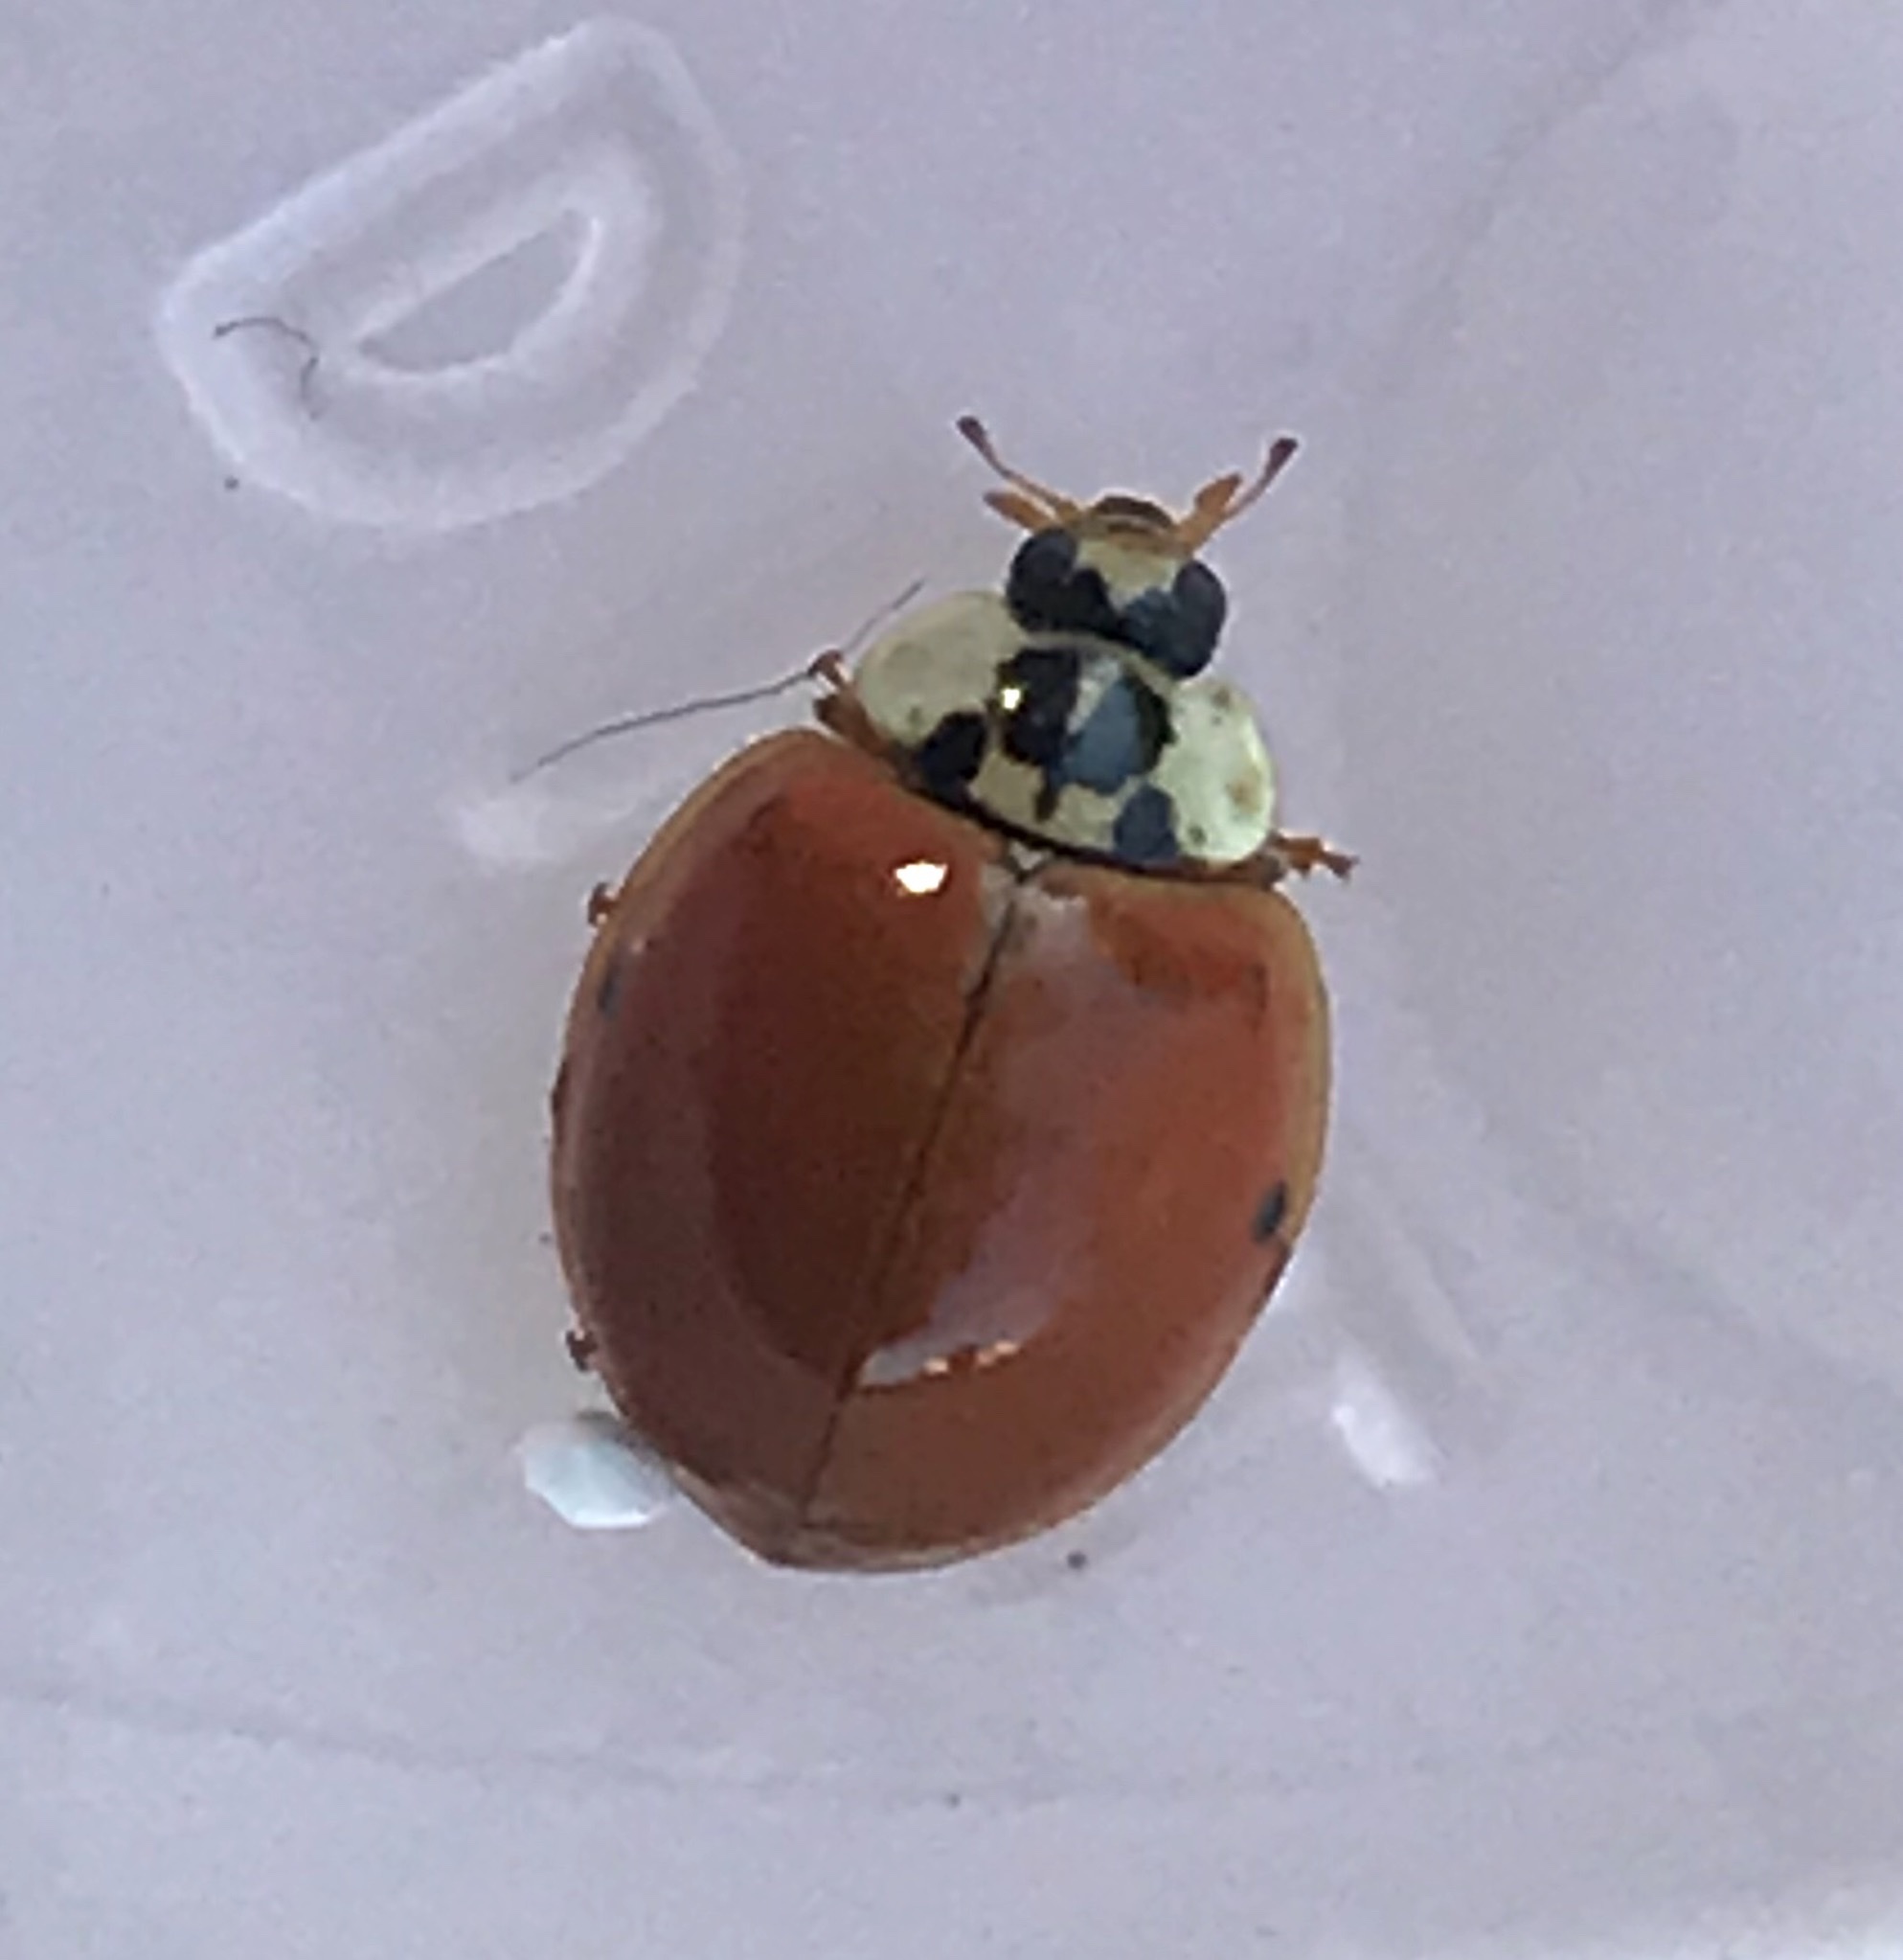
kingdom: Animalia
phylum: Arthropoda
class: Insecta
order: Coleoptera
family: Coccinellidae
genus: Harmonia
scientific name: Harmonia axyridis
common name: Harlequin ladybird
